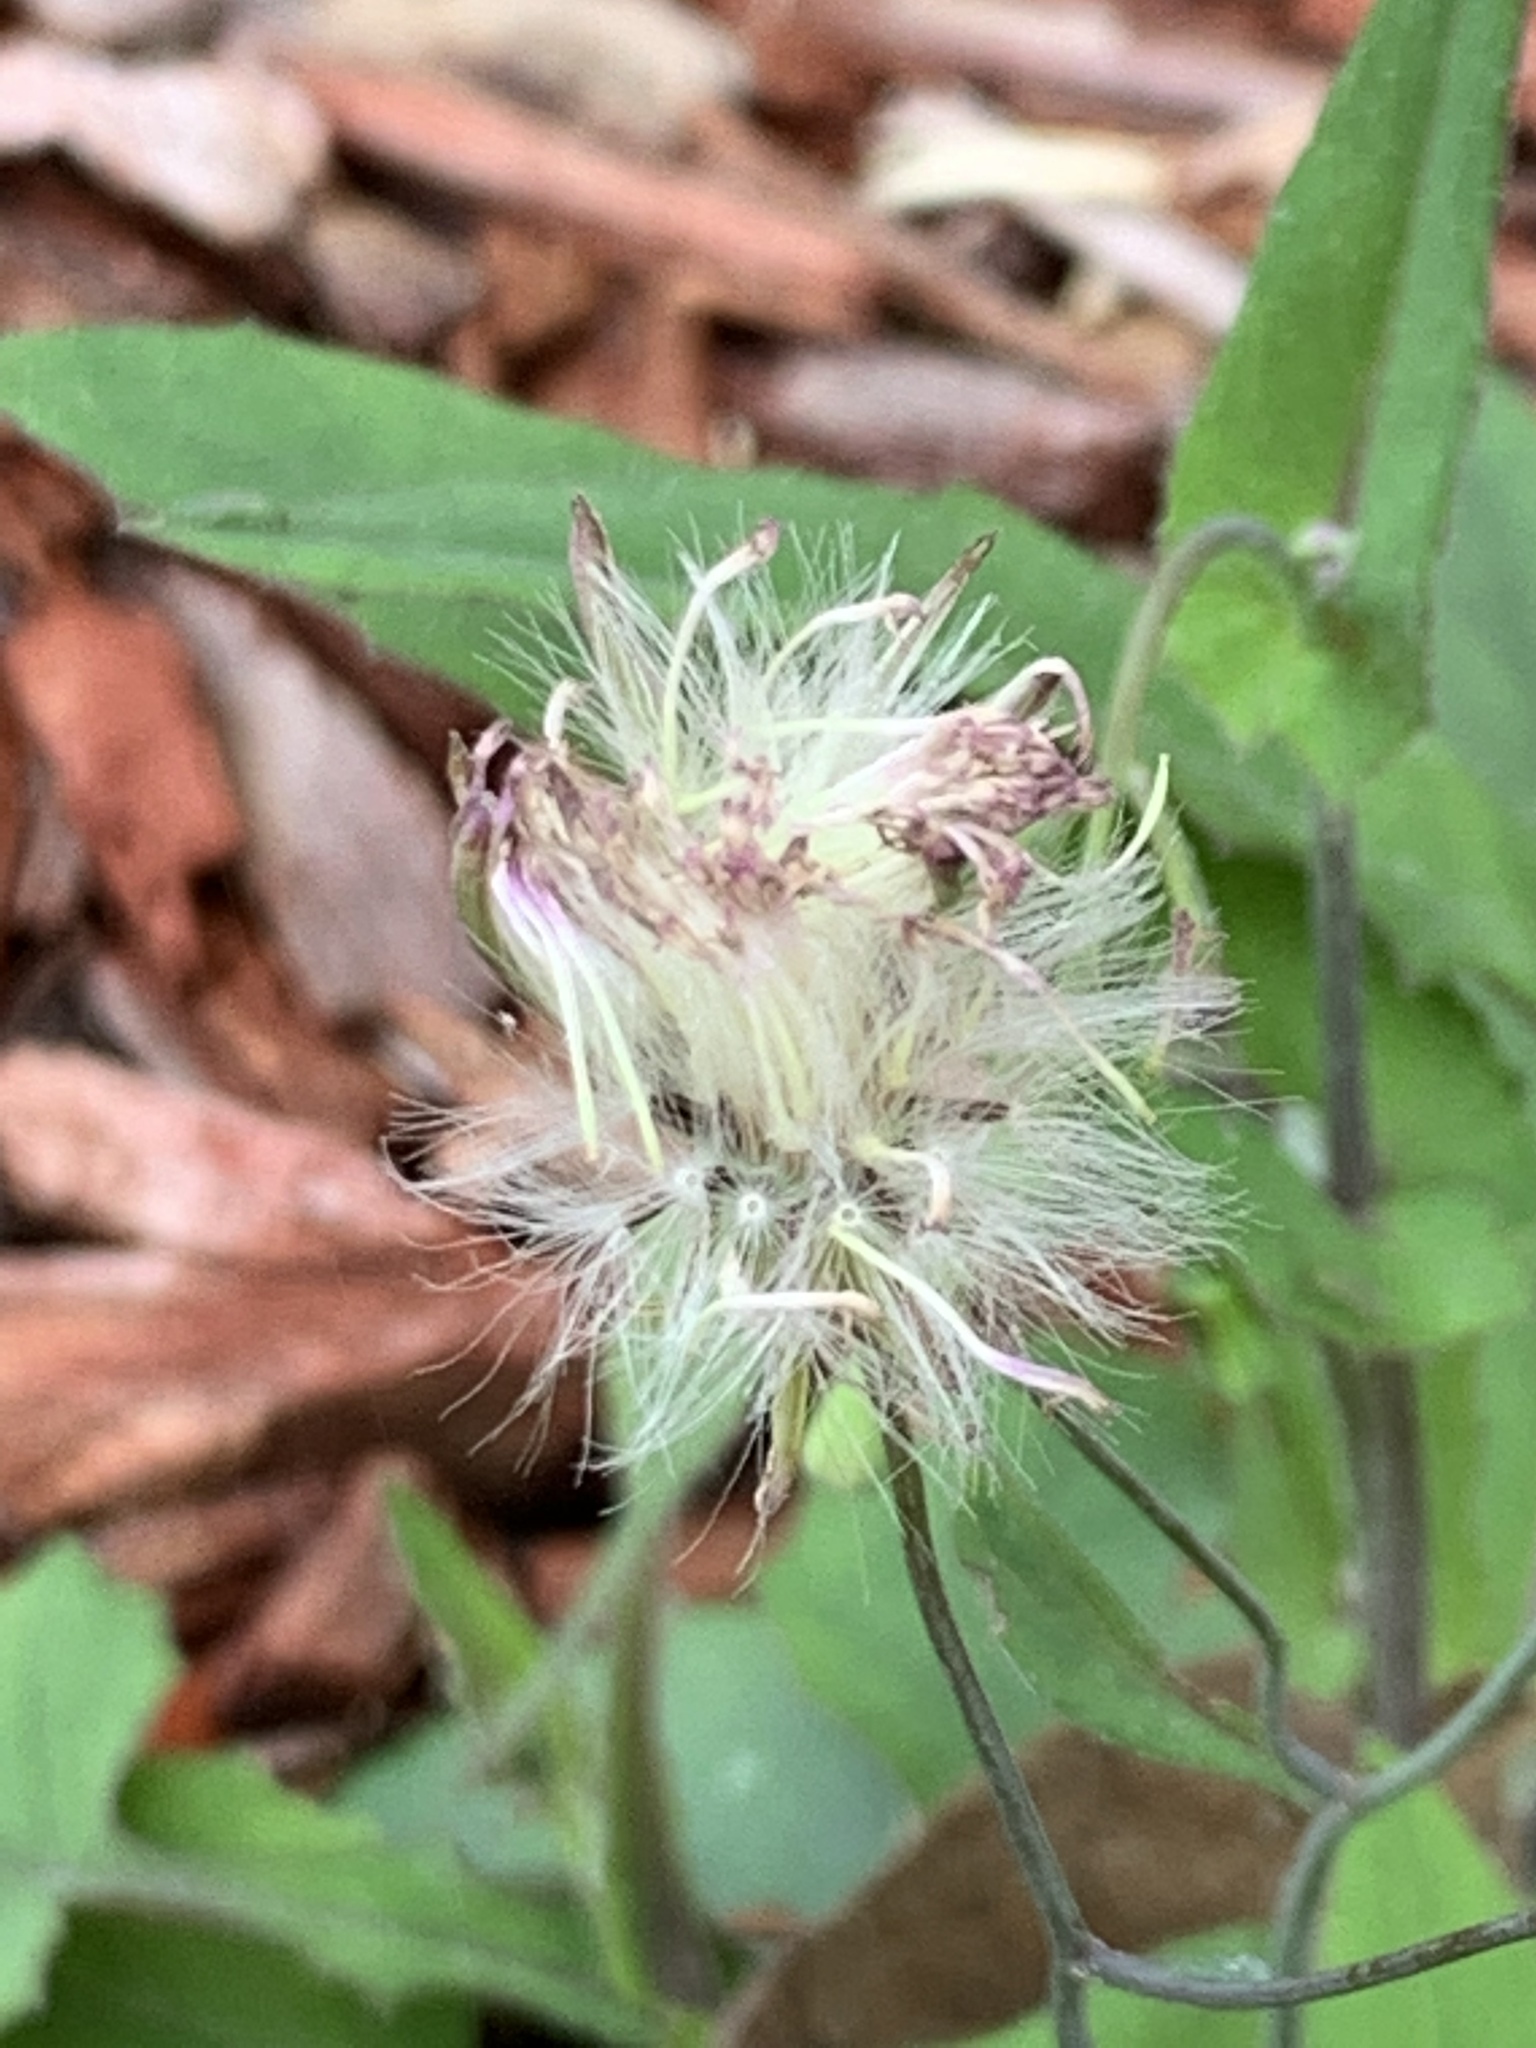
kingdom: Plantae
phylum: Tracheophyta
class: Magnoliopsida
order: Asterales
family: Asteraceae
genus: Emilia
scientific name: Emilia sonchifolia
